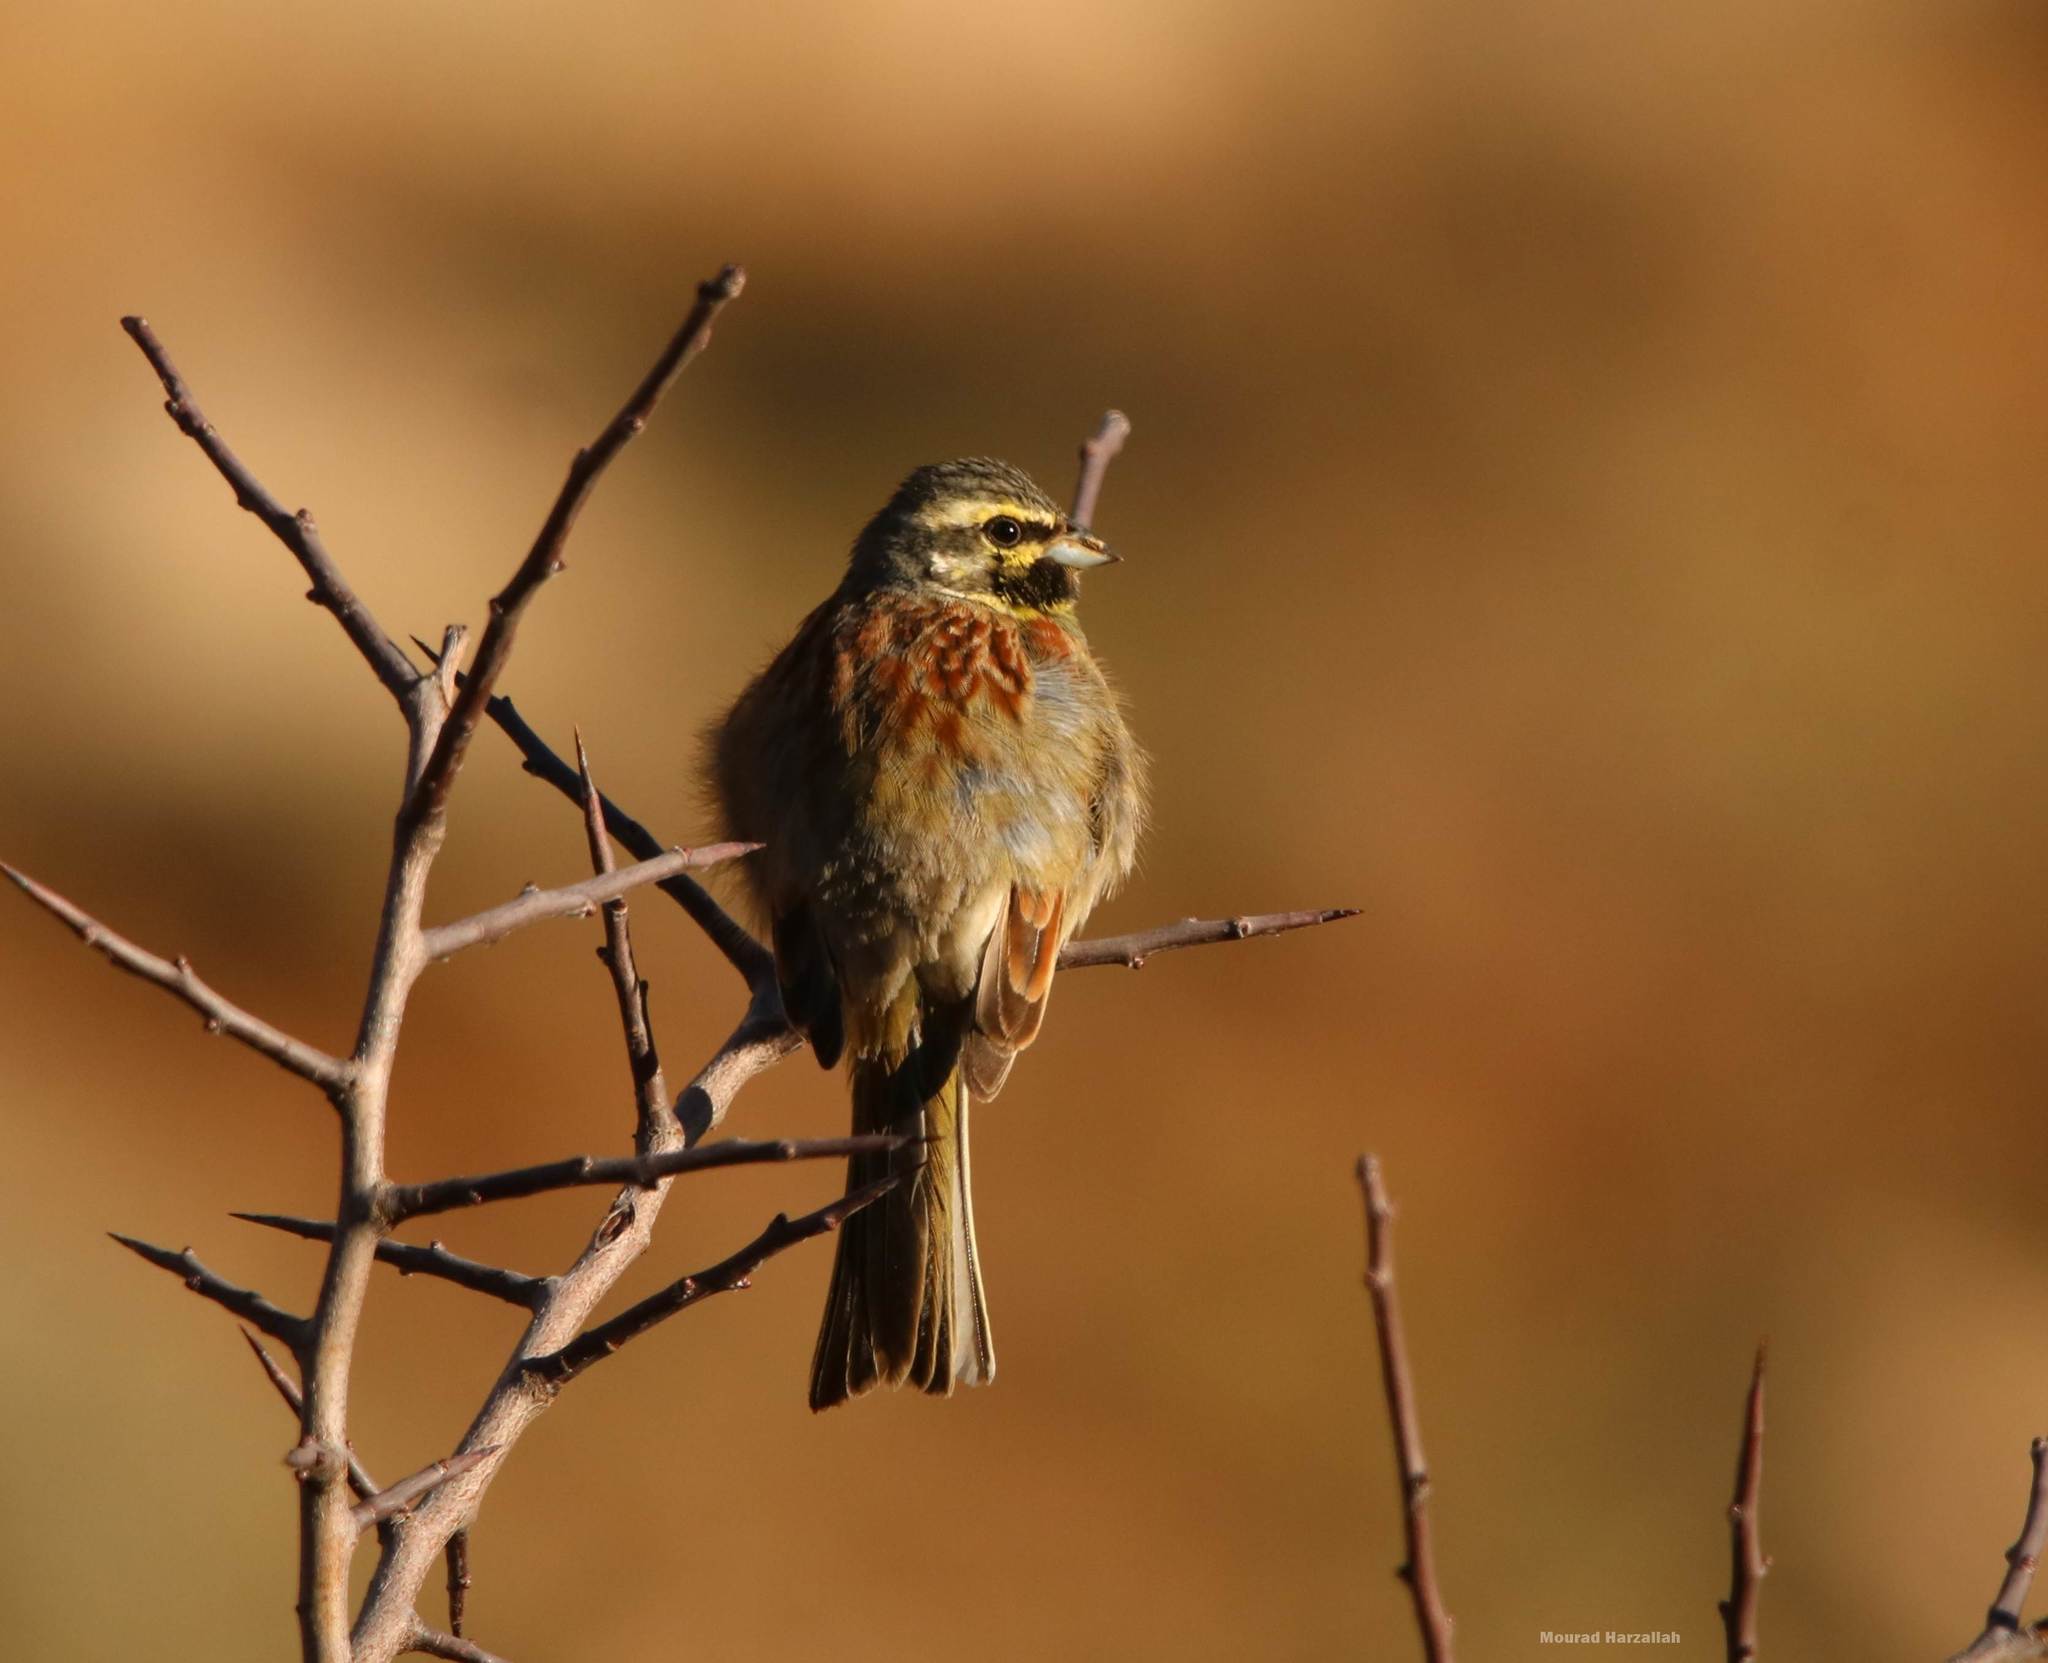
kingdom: Animalia
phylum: Chordata
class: Aves
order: Passeriformes
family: Emberizidae
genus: Emberiza
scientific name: Emberiza cirlus
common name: Cirl bunting
